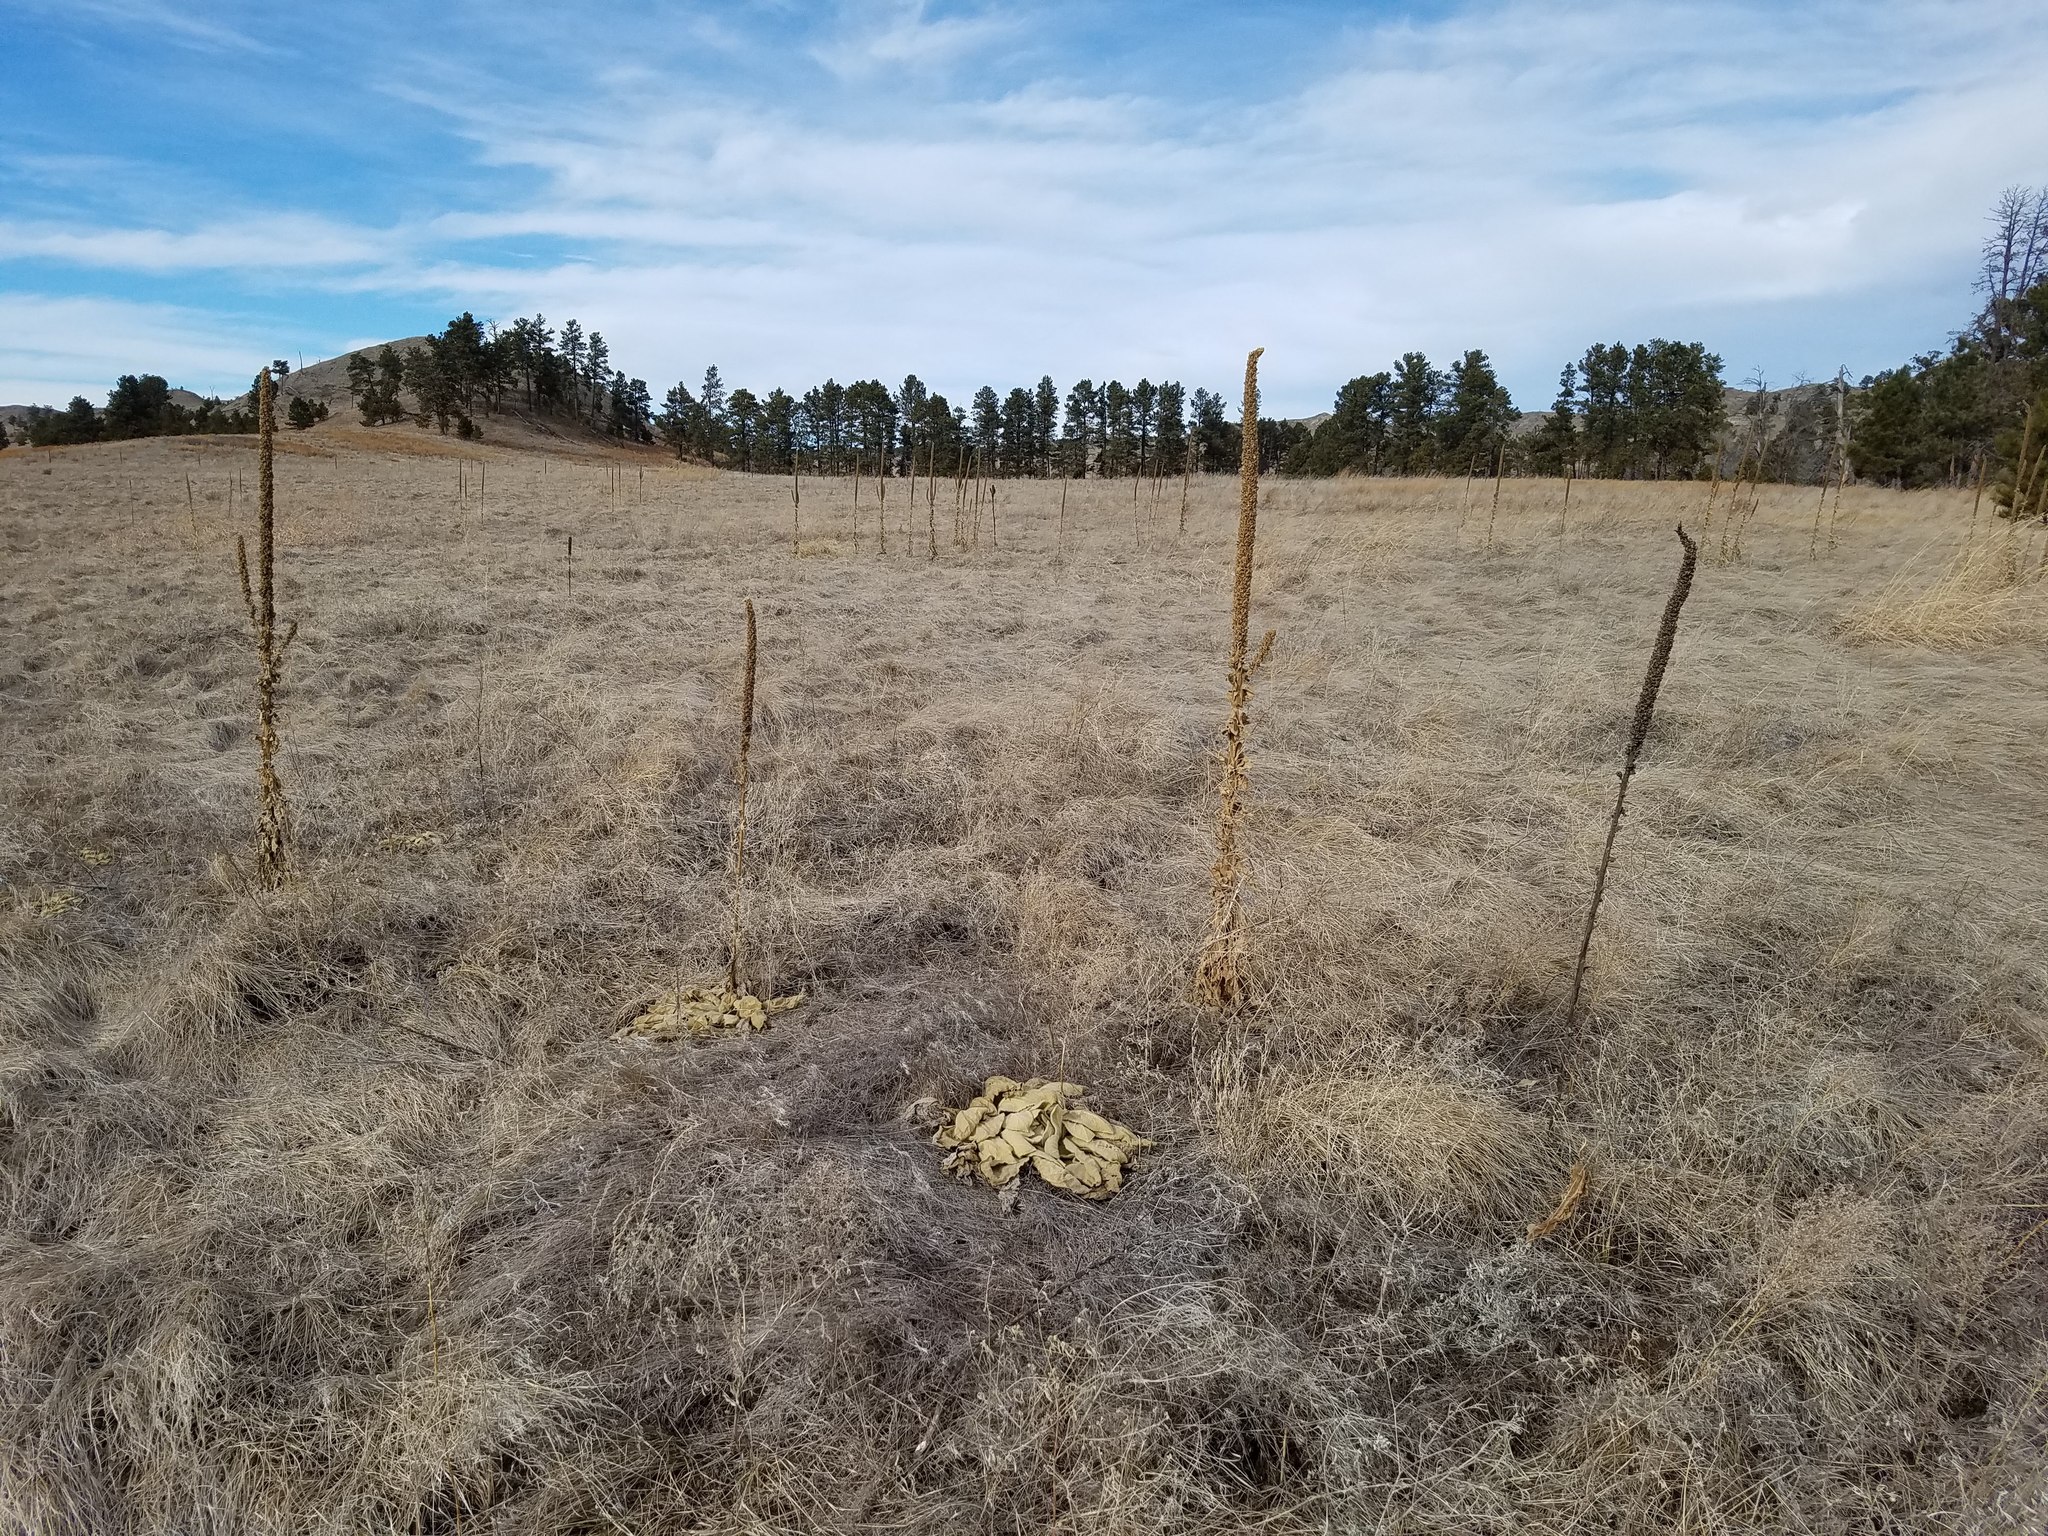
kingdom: Plantae
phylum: Tracheophyta
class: Magnoliopsida
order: Lamiales
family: Scrophulariaceae
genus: Verbascum
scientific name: Verbascum thapsus
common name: Common mullein
